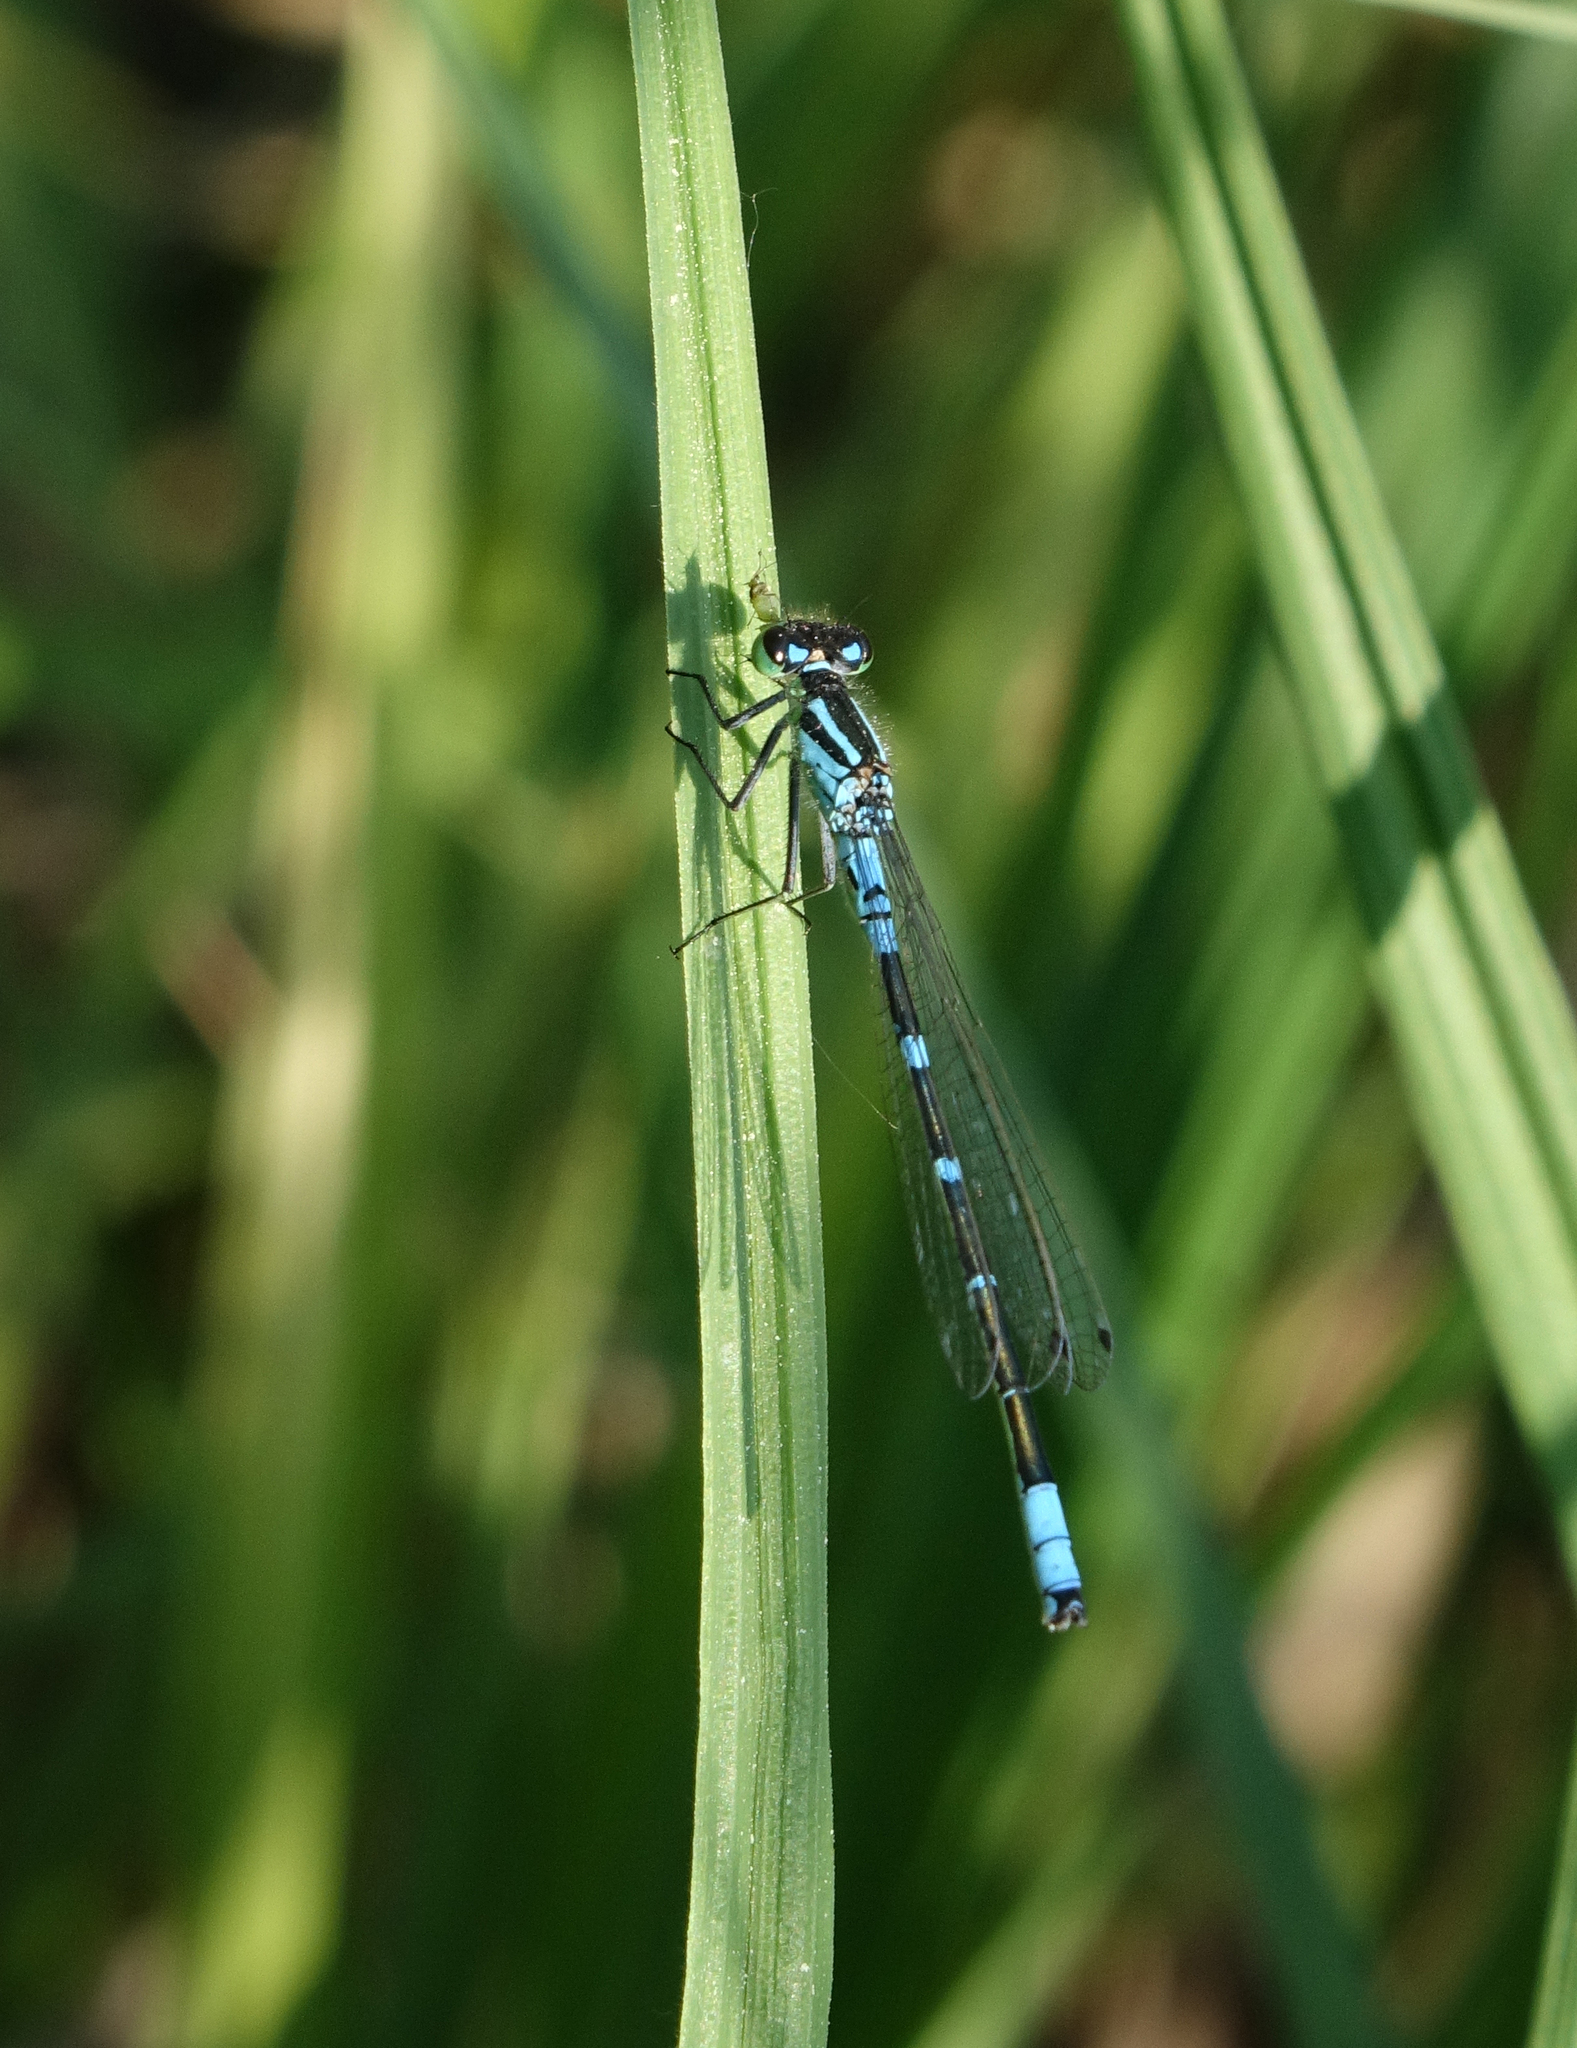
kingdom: Animalia
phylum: Arthropoda
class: Insecta
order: Odonata
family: Coenagrionidae
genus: Coenagrion
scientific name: Coenagrion lunulatum
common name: Irish damselfly
